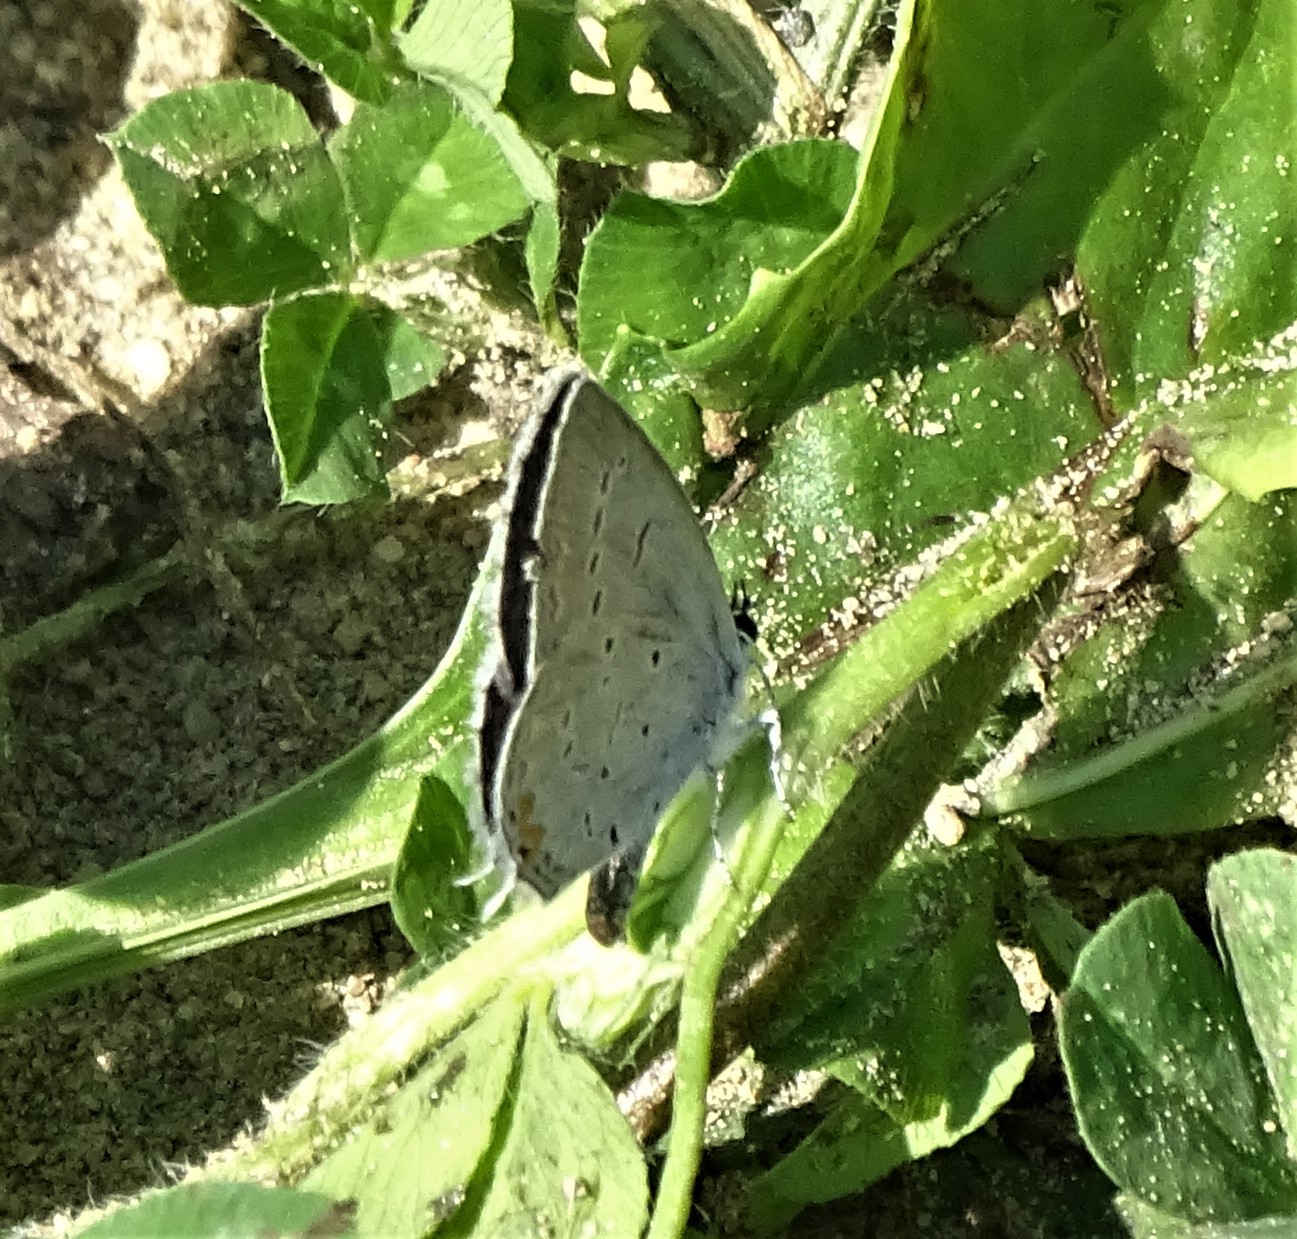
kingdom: Animalia
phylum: Arthropoda
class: Insecta
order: Lepidoptera
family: Lycaenidae
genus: Elkalyce
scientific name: Elkalyce comyntas
